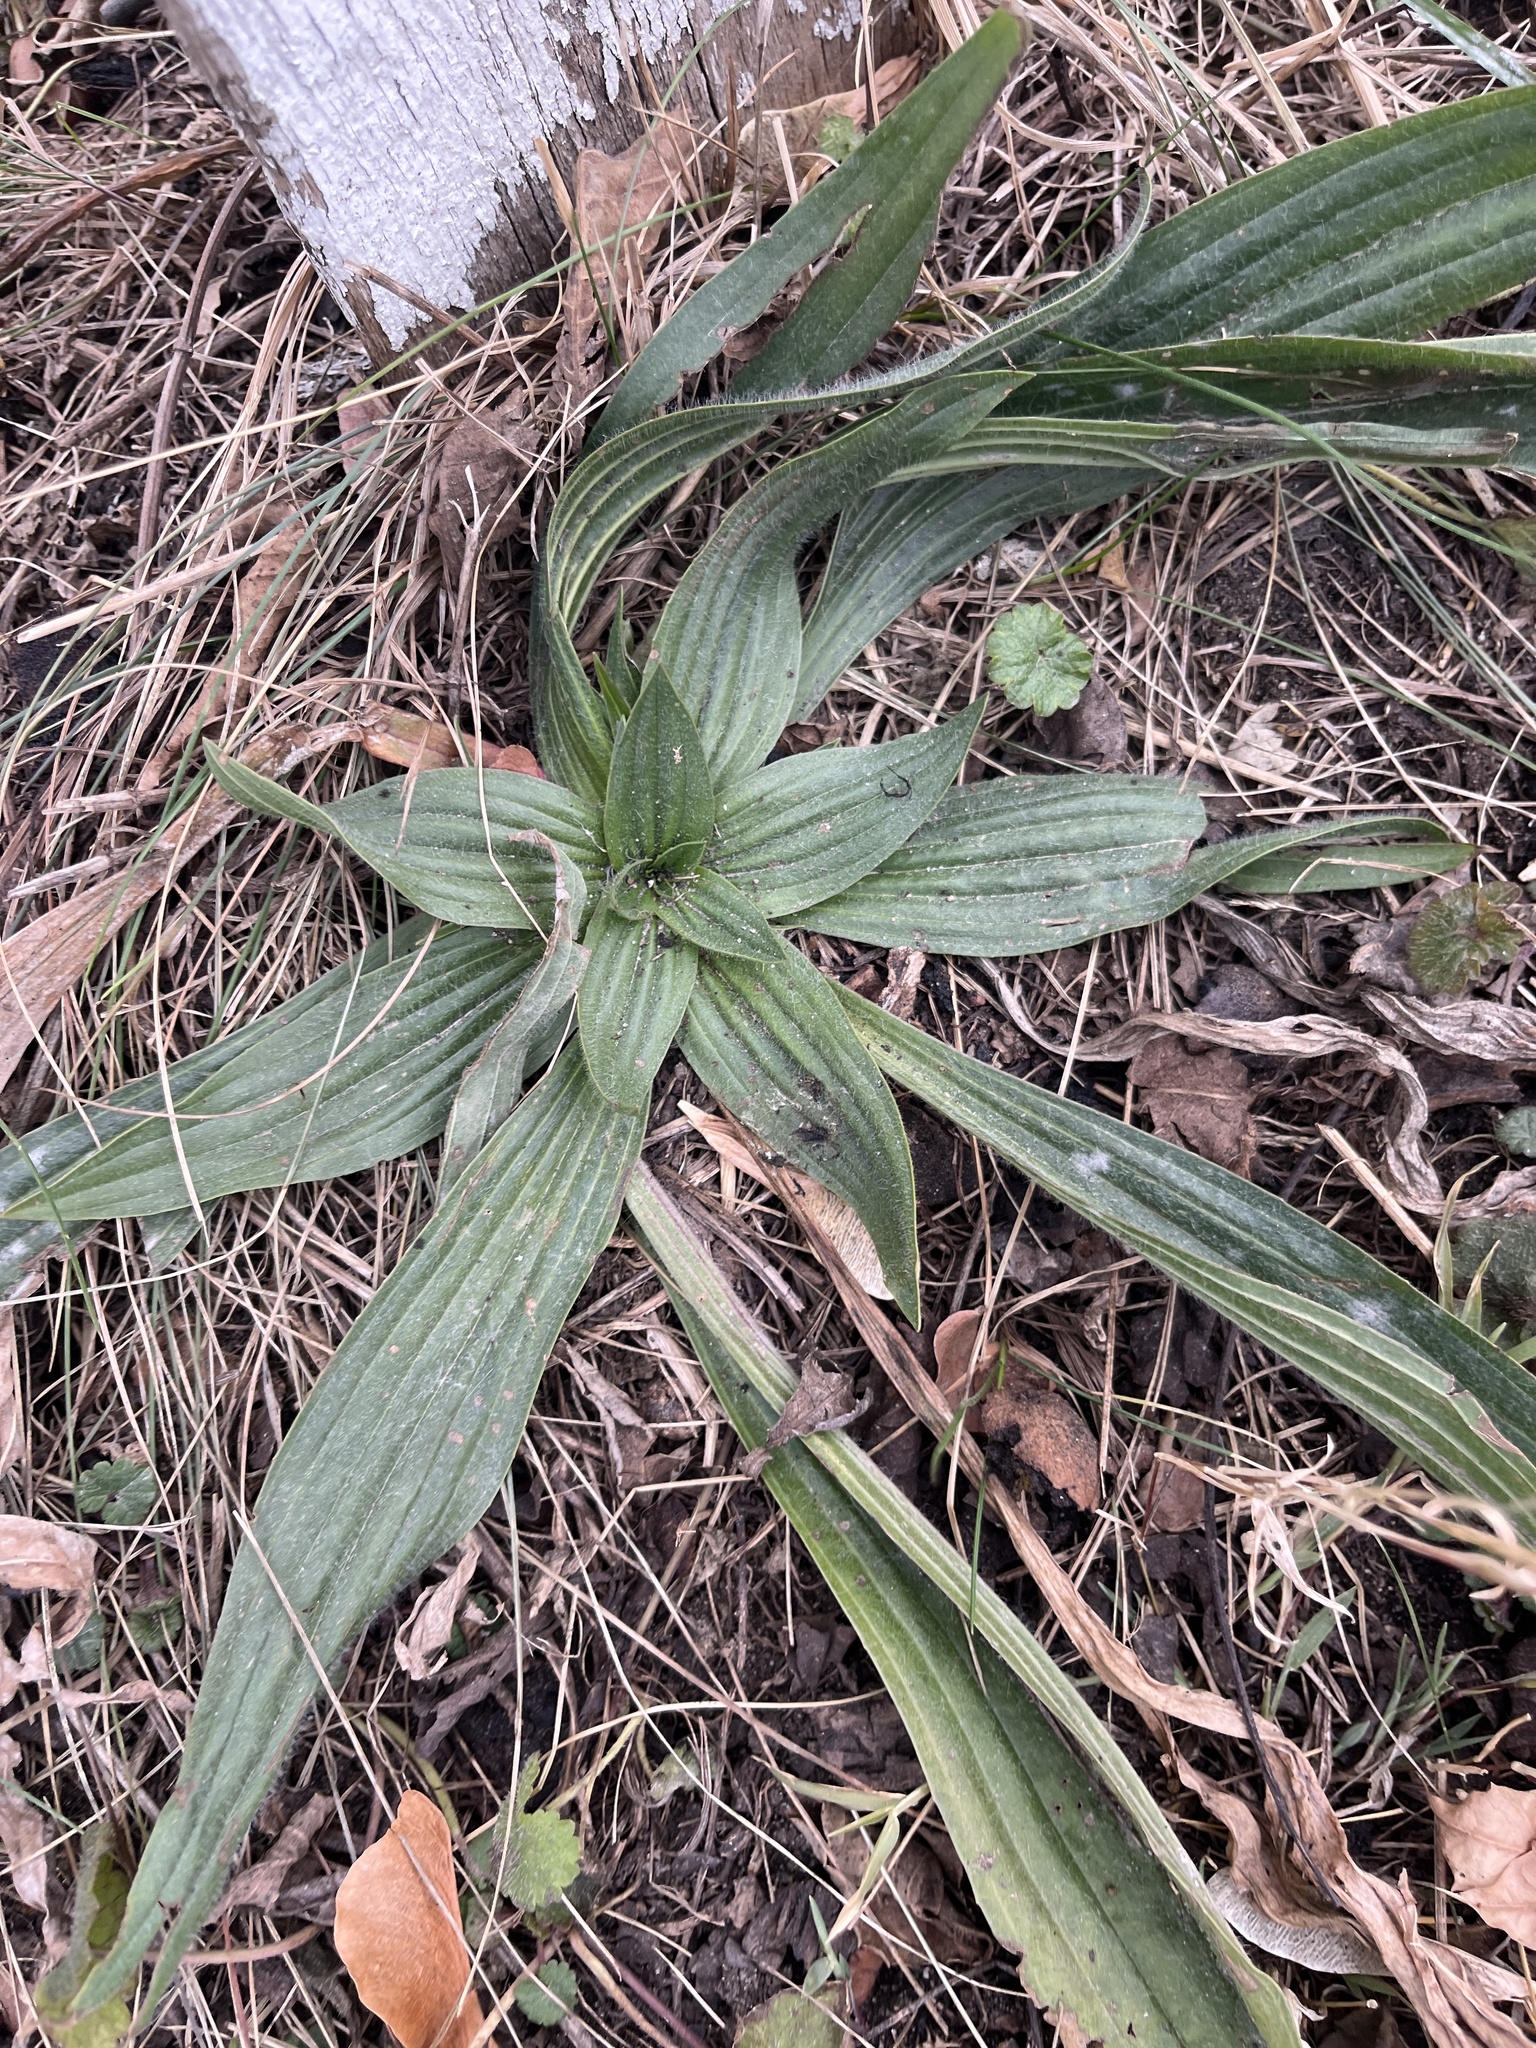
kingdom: Plantae
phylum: Tracheophyta
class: Magnoliopsida
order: Lamiales
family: Plantaginaceae
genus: Plantago
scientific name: Plantago lanceolata
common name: Ribwort plantain
